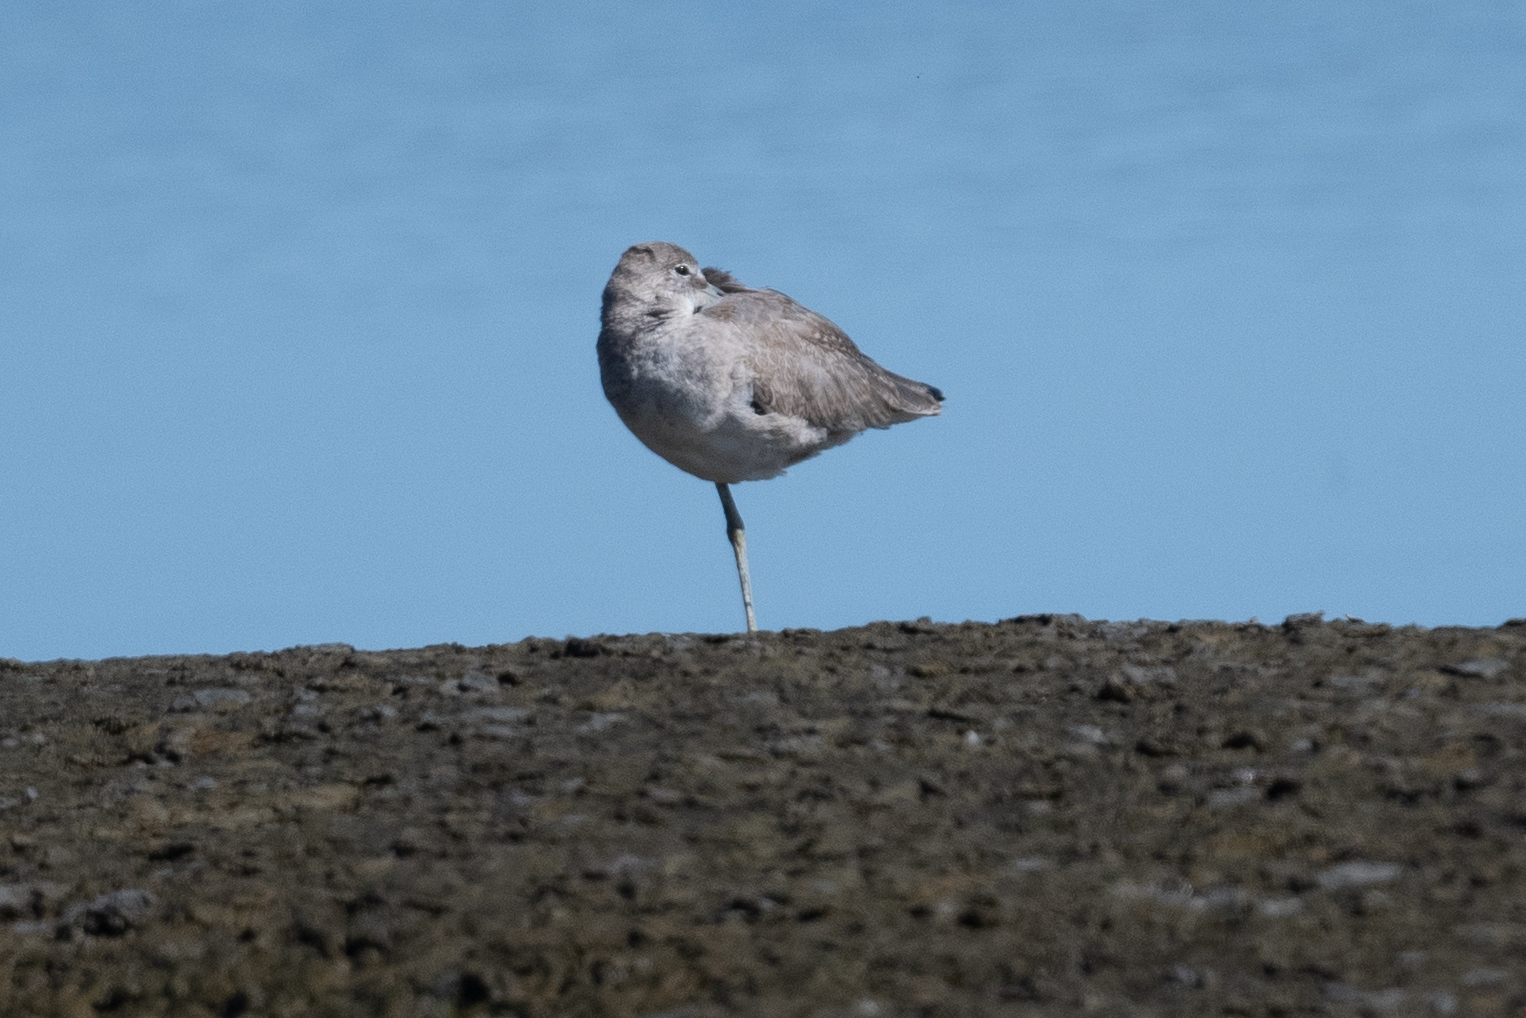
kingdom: Animalia
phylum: Chordata
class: Aves
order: Charadriiformes
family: Scolopacidae
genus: Tringa
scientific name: Tringa semipalmata
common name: Willet
